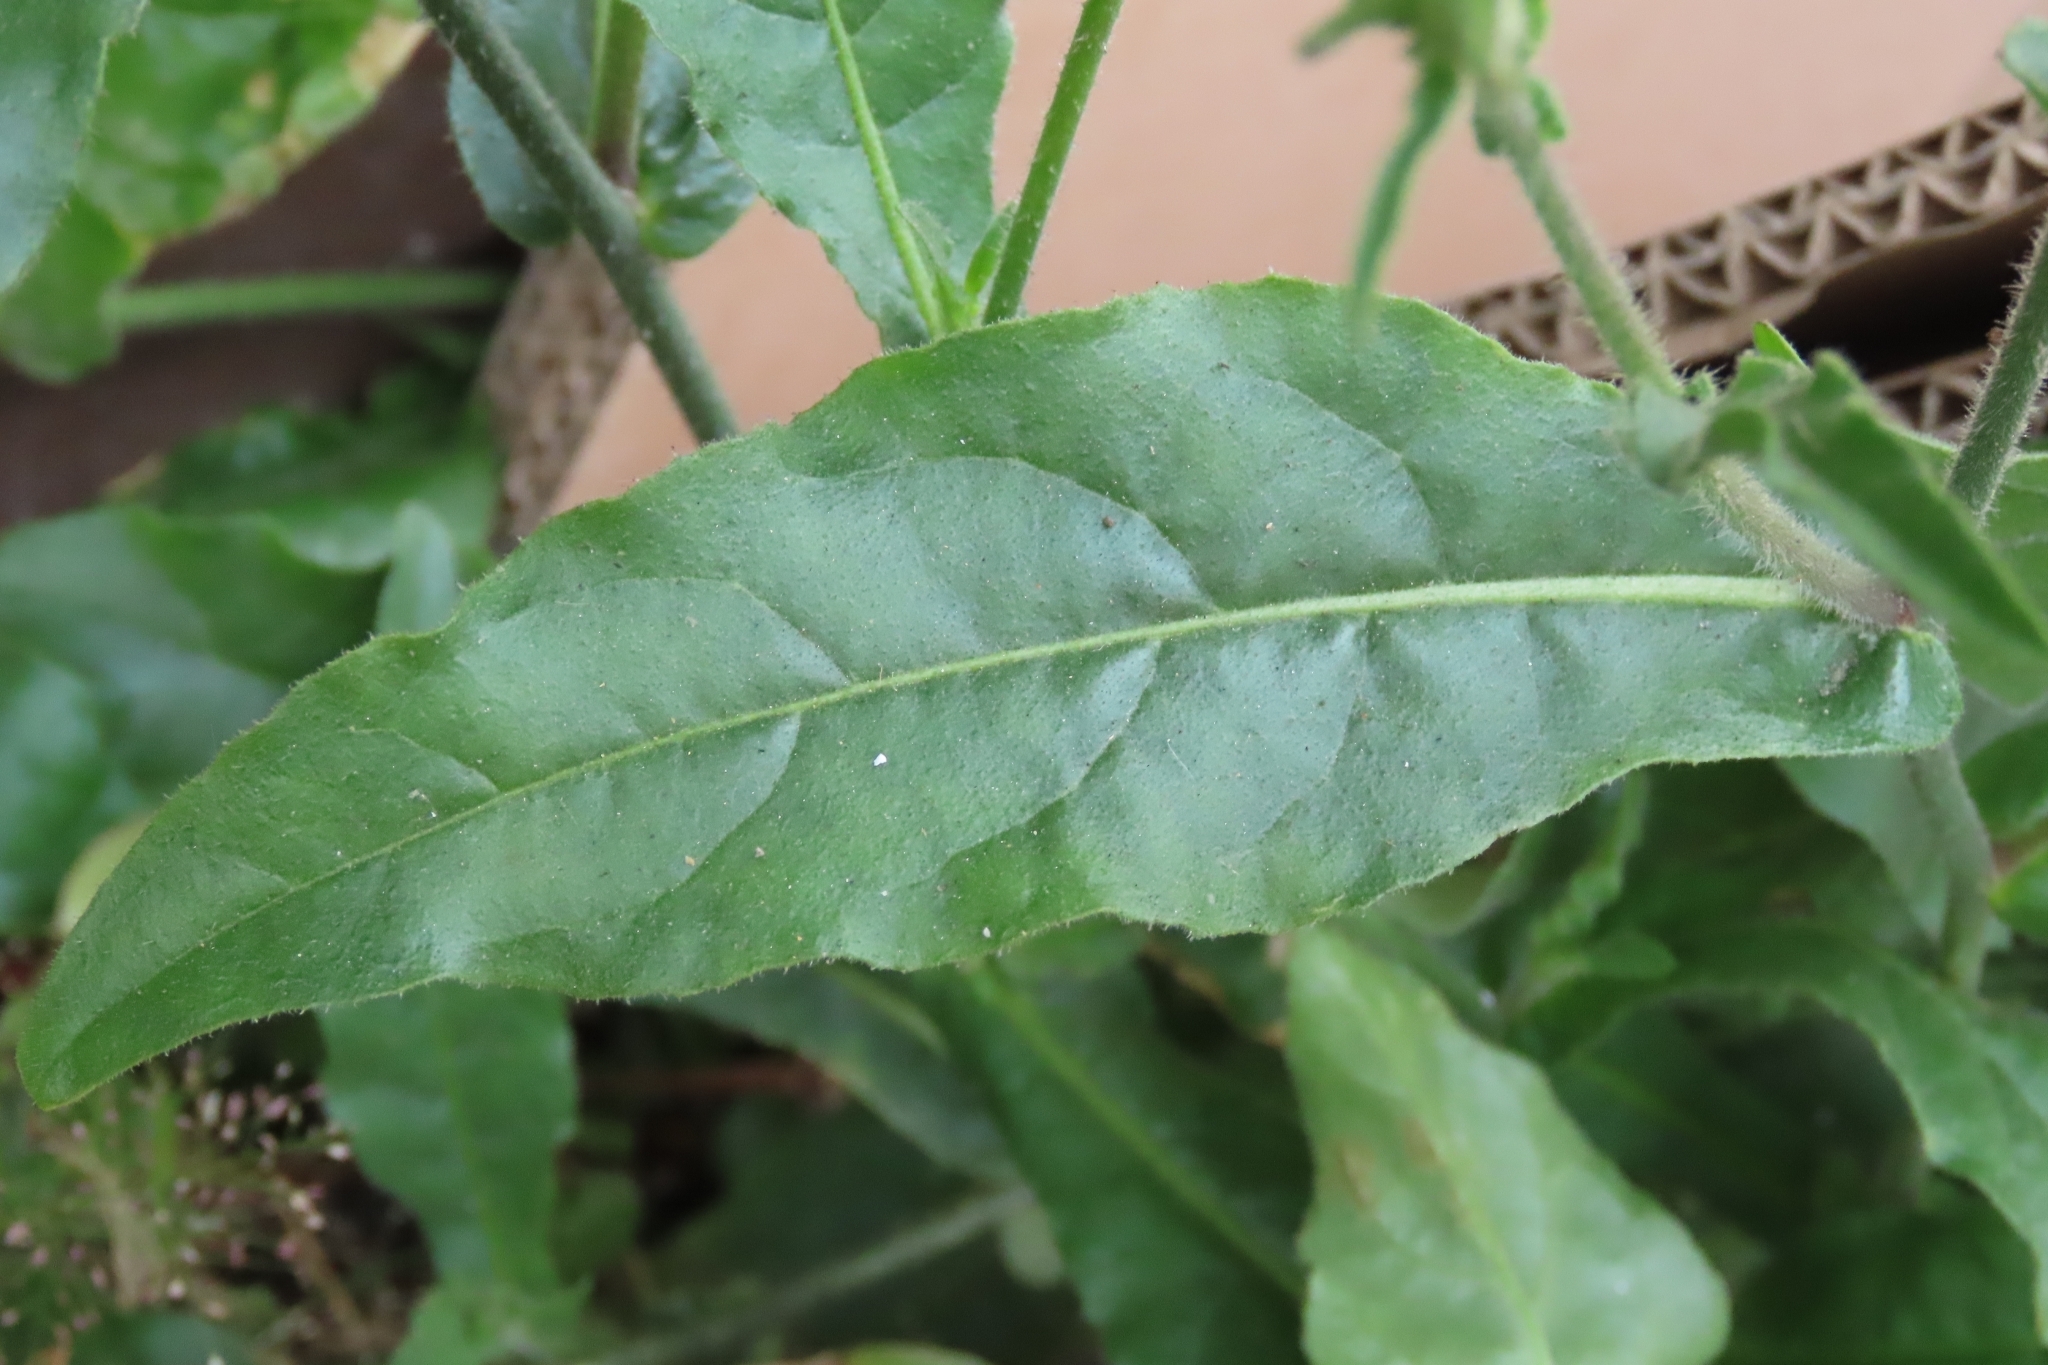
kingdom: Plantae
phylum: Tracheophyta
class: Magnoliopsida
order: Solanales
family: Solanaceae
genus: Nicotiana
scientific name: Nicotiana plumbaginifolia
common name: Tex-mex tobacco
